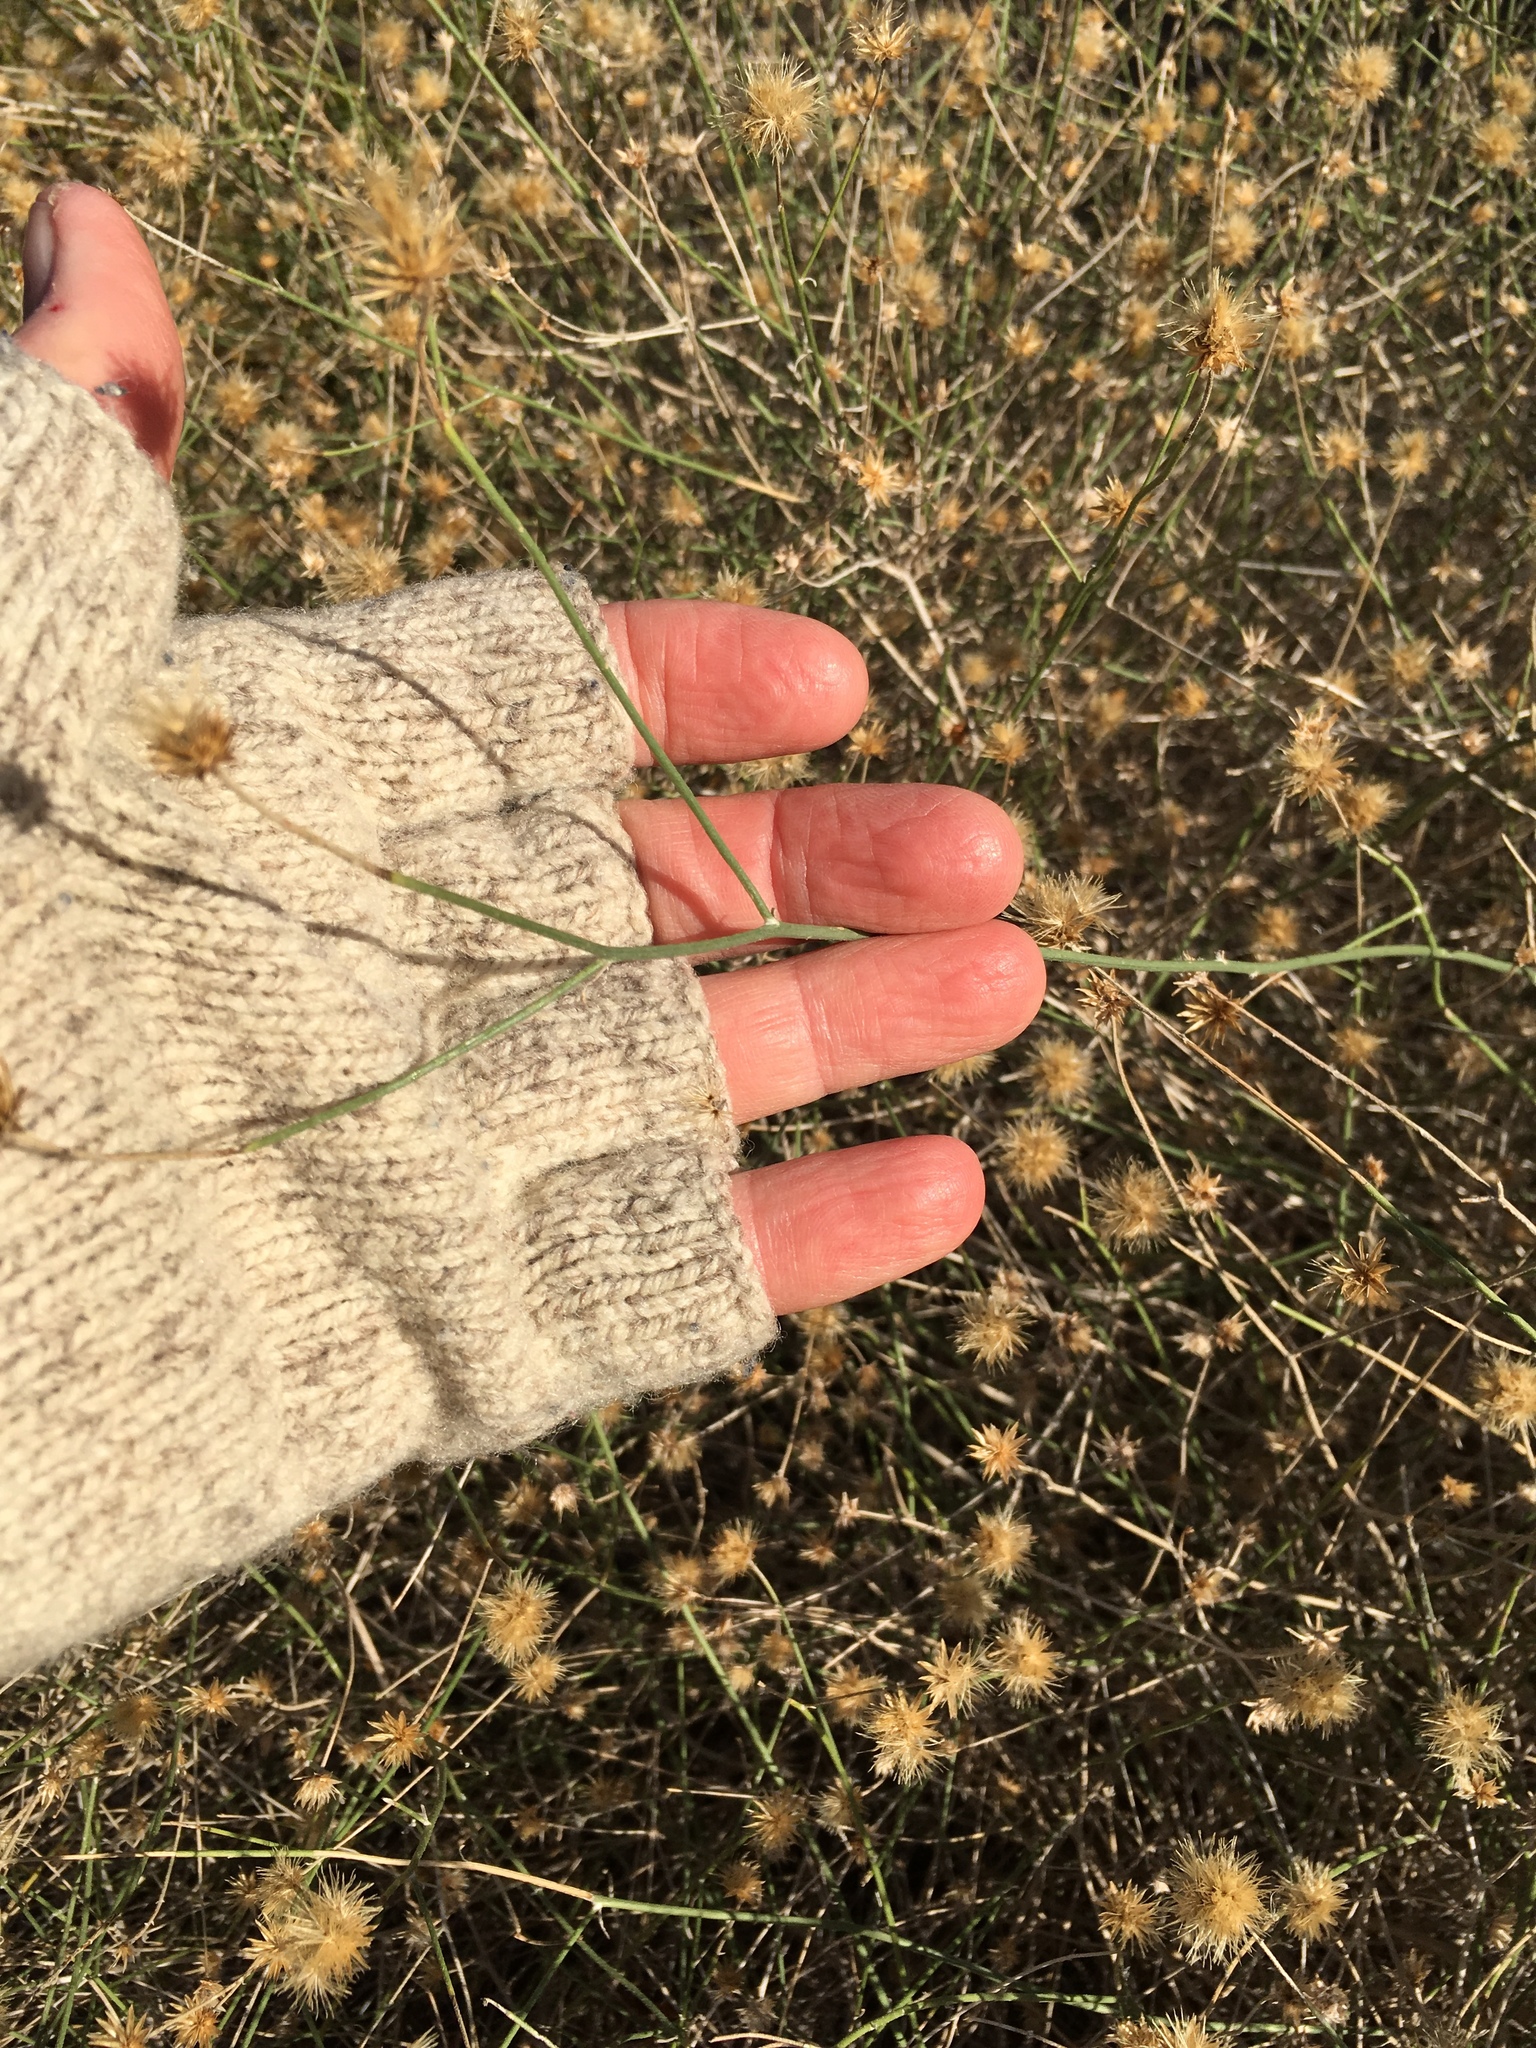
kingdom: Plantae
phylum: Tracheophyta
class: Magnoliopsida
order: Asterales
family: Asteraceae
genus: Bebbia
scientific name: Bebbia juncea
